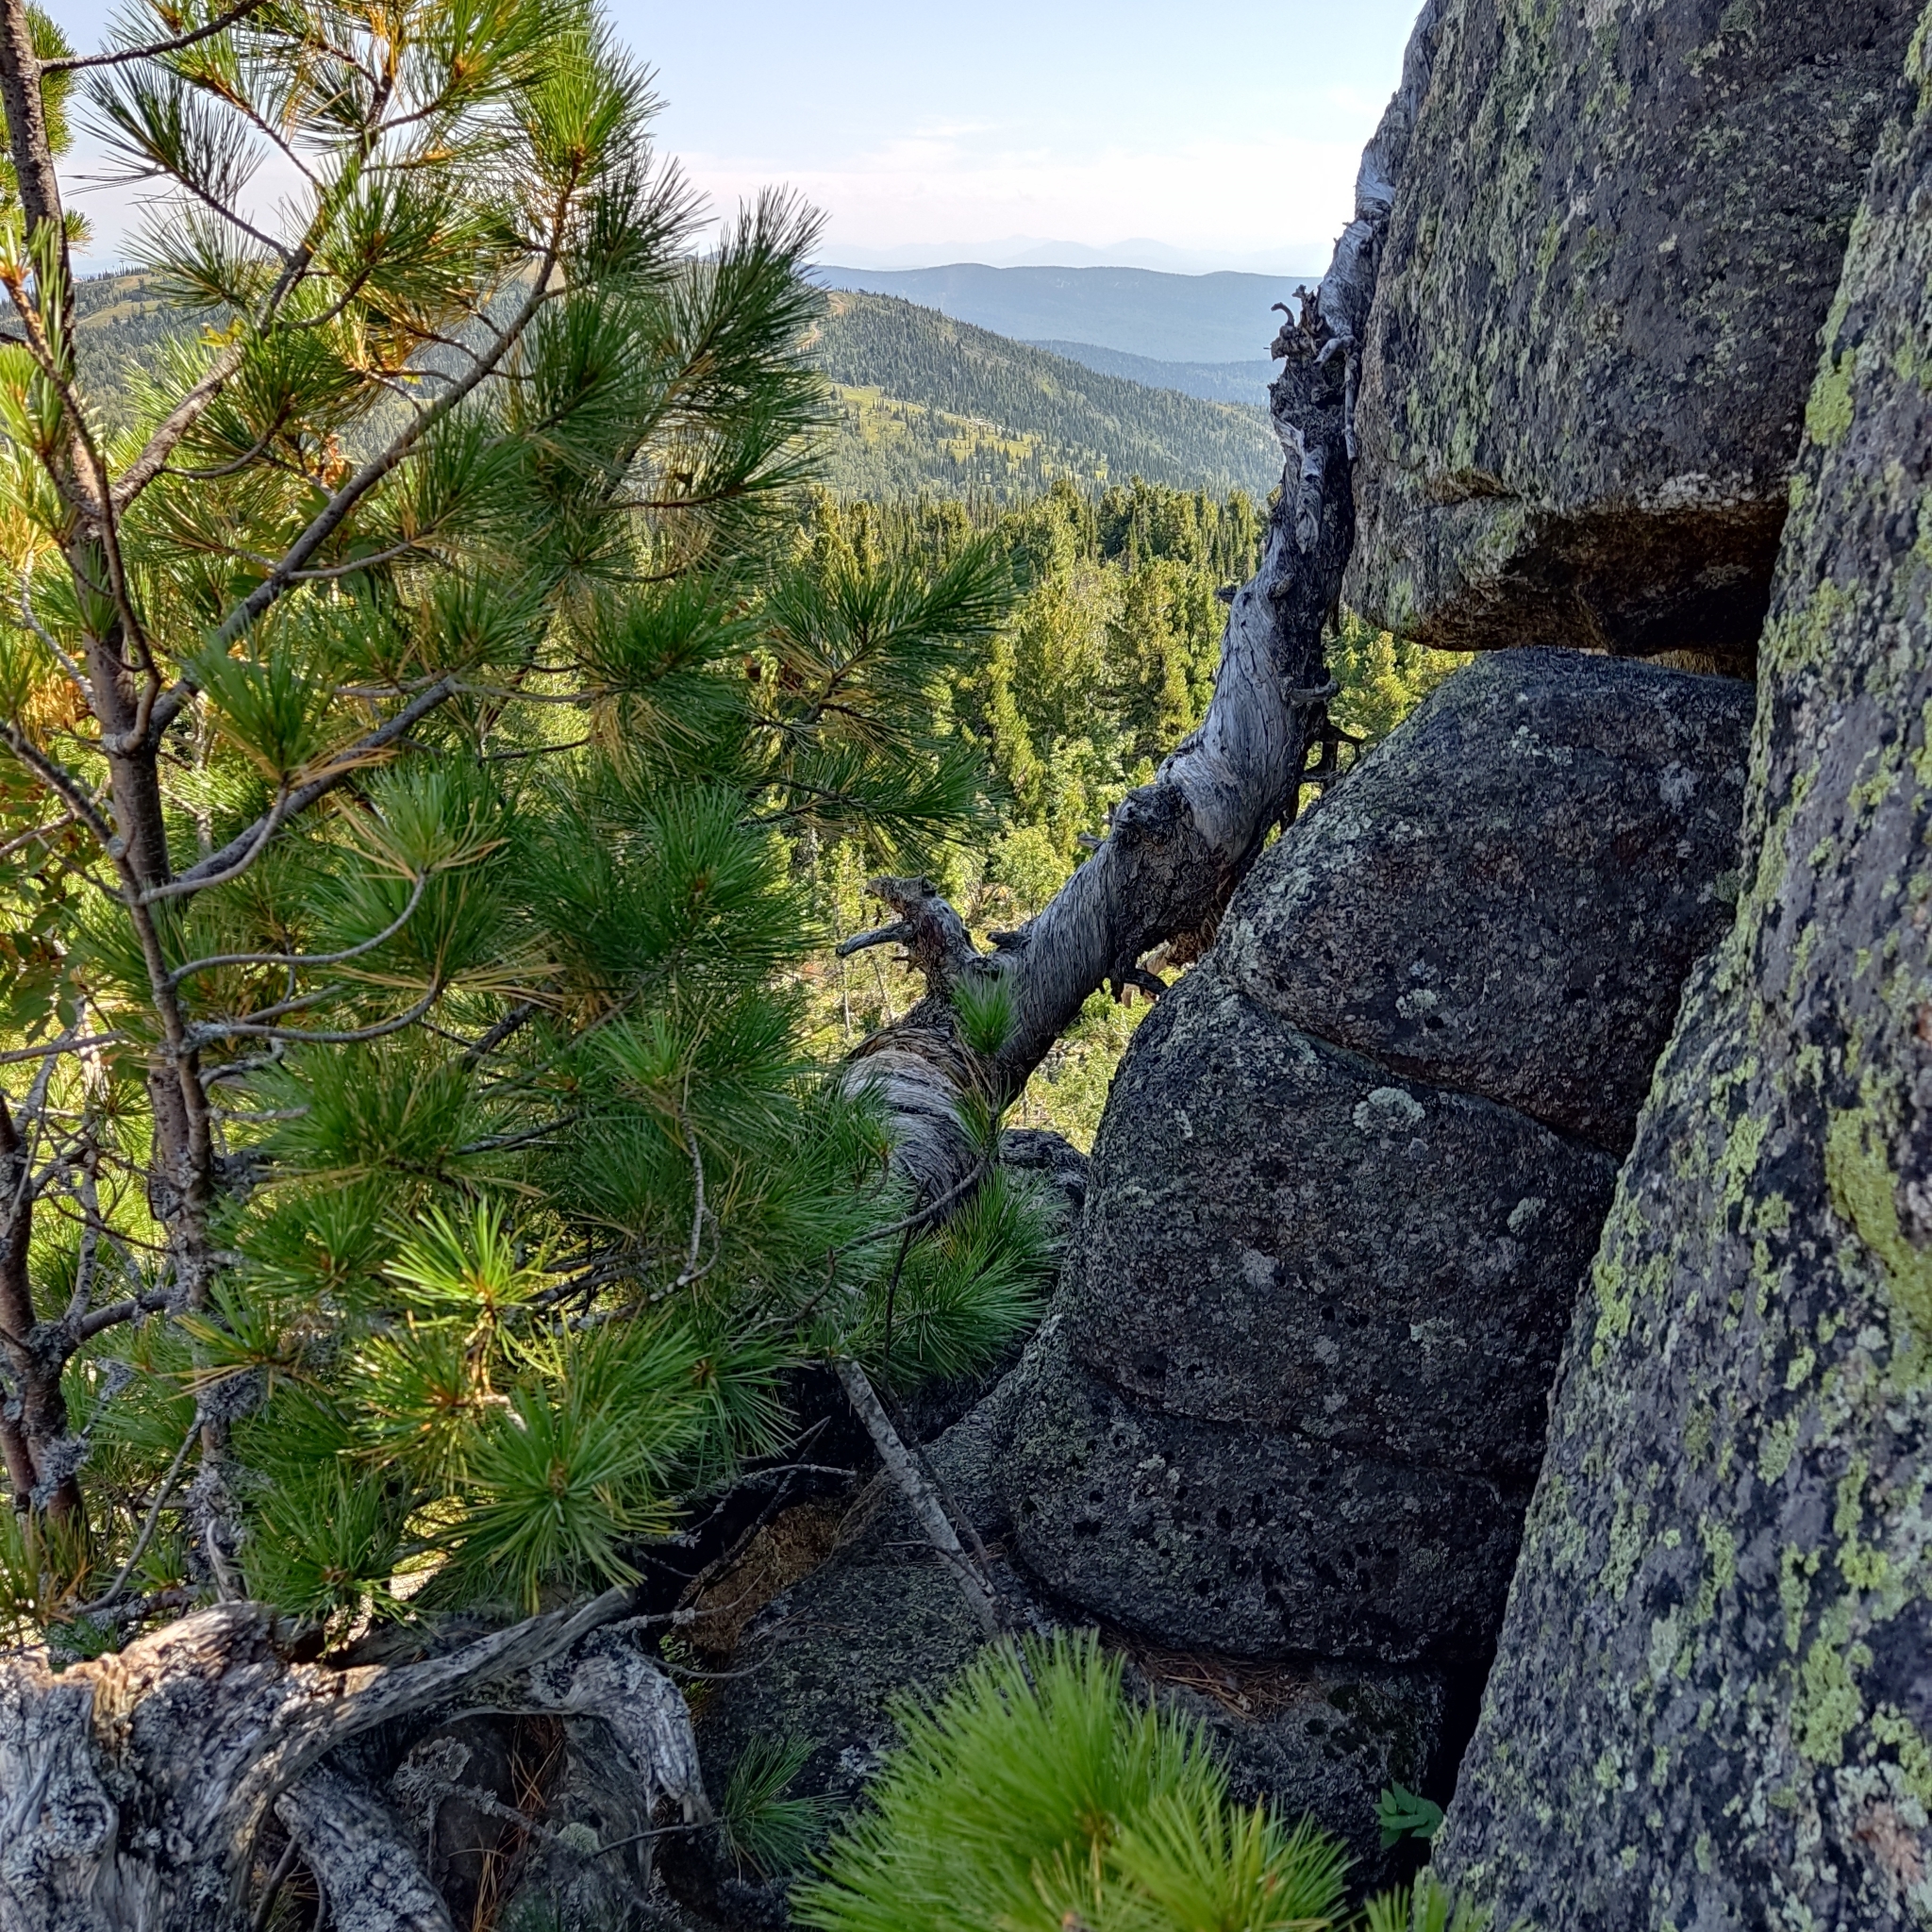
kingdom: Plantae
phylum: Tracheophyta
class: Pinopsida
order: Pinales
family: Pinaceae
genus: Pinus
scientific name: Pinus sibirica
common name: Siberian pine
